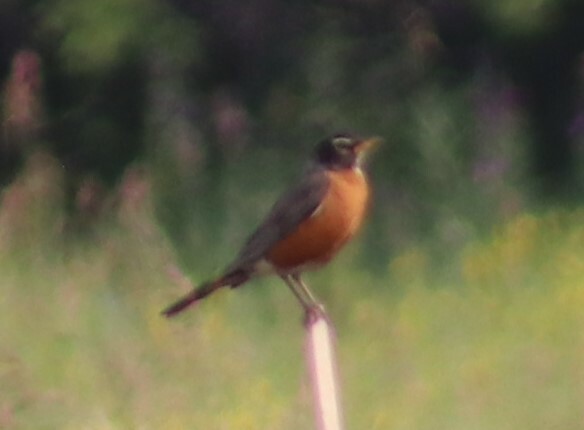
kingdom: Animalia
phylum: Chordata
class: Aves
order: Passeriformes
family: Turdidae
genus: Turdus
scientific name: Turdus migratorius
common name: American robin
